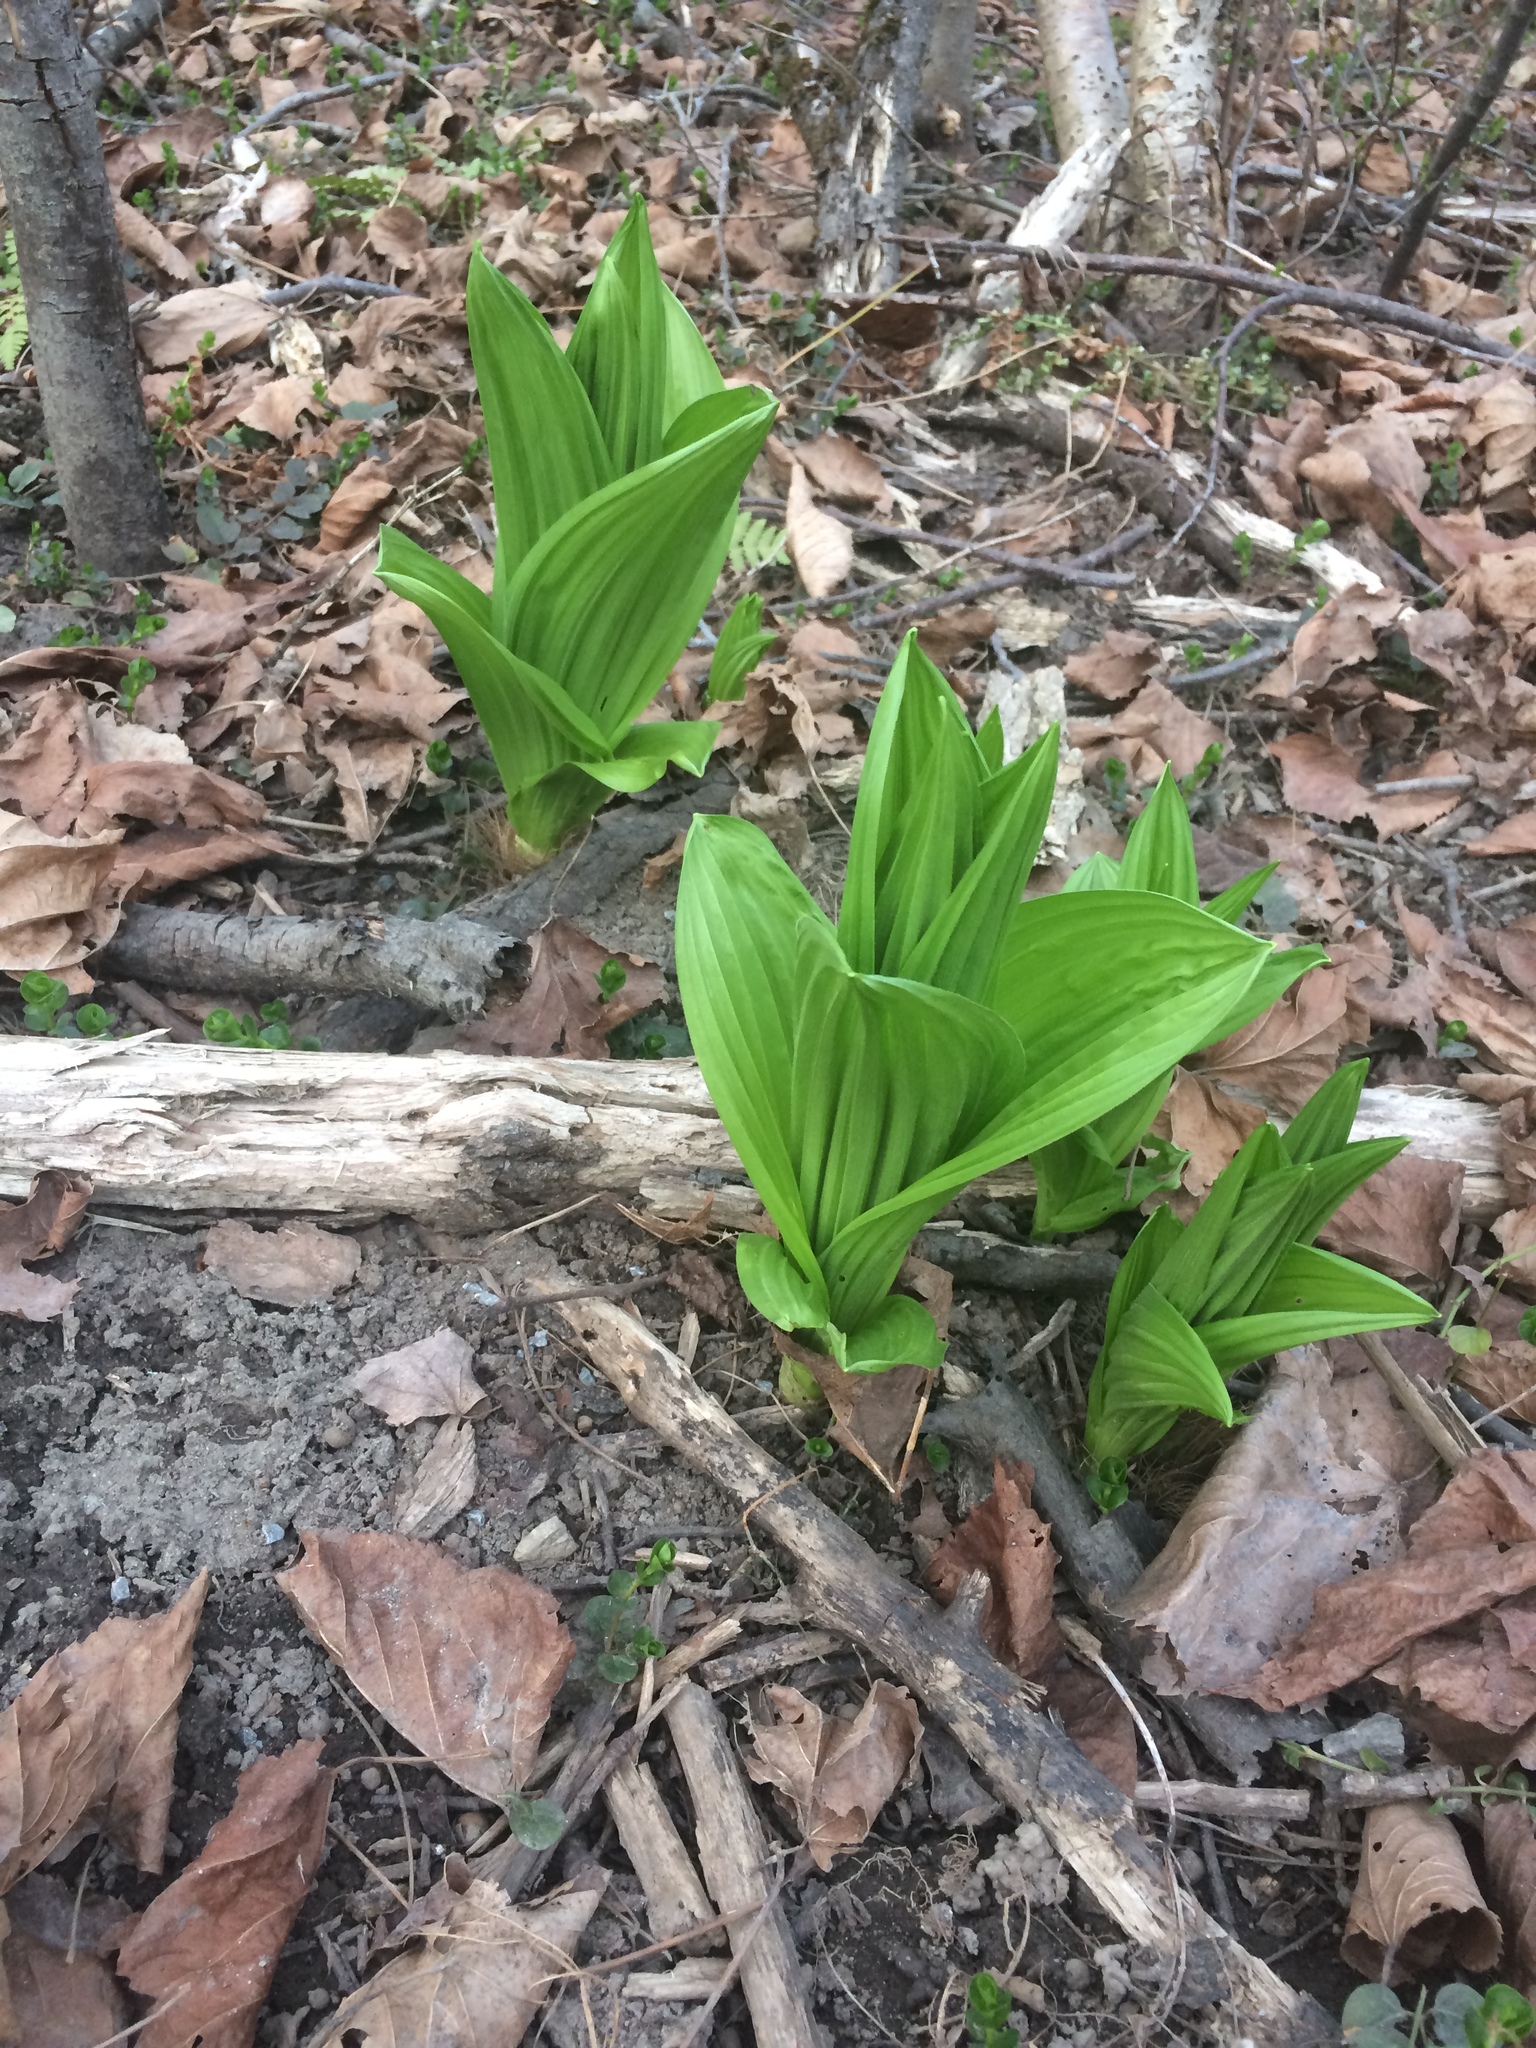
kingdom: Plantae
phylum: Tracheophyta
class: Liliopsida
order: Liliales
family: Melanthiaceae
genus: Veratrum
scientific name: Veratrum viride
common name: American false hellebore
